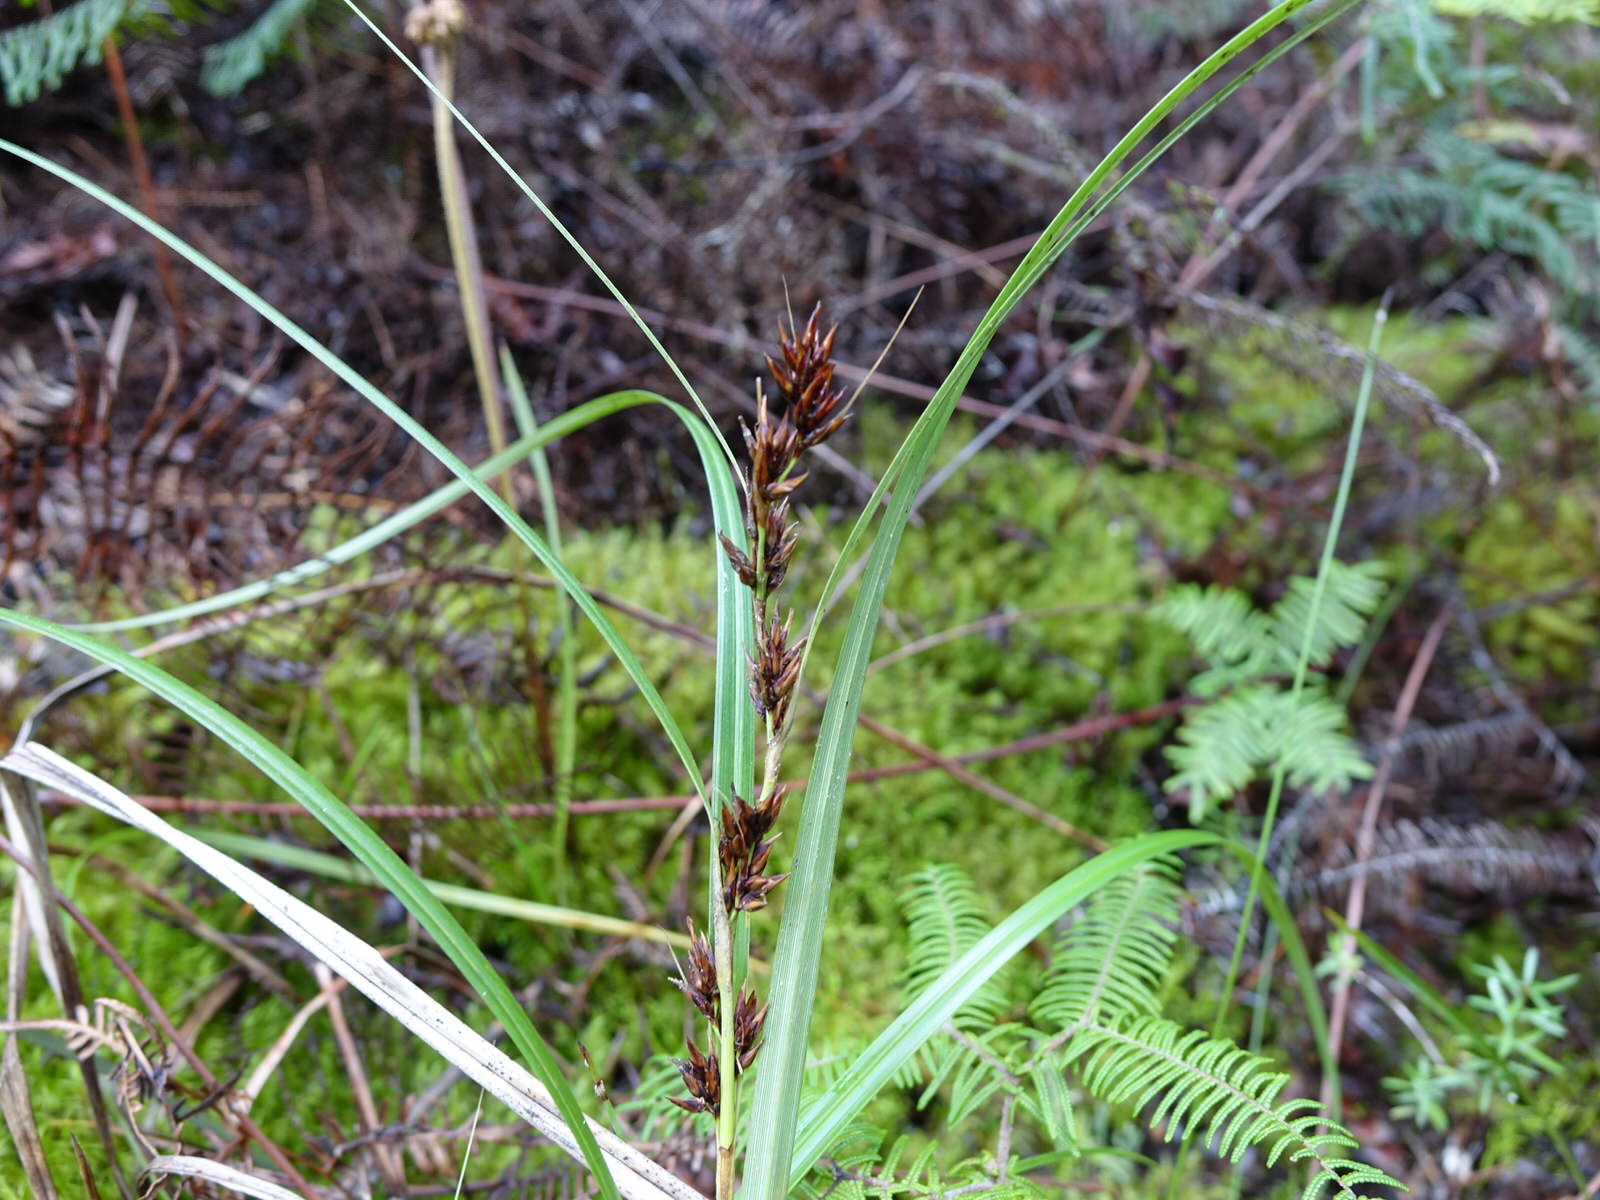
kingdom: Plantae
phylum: Tracheophyta
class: Liliopsida
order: Poales
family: Cyperaceae
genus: Morelotia
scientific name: Morelotia affinis
